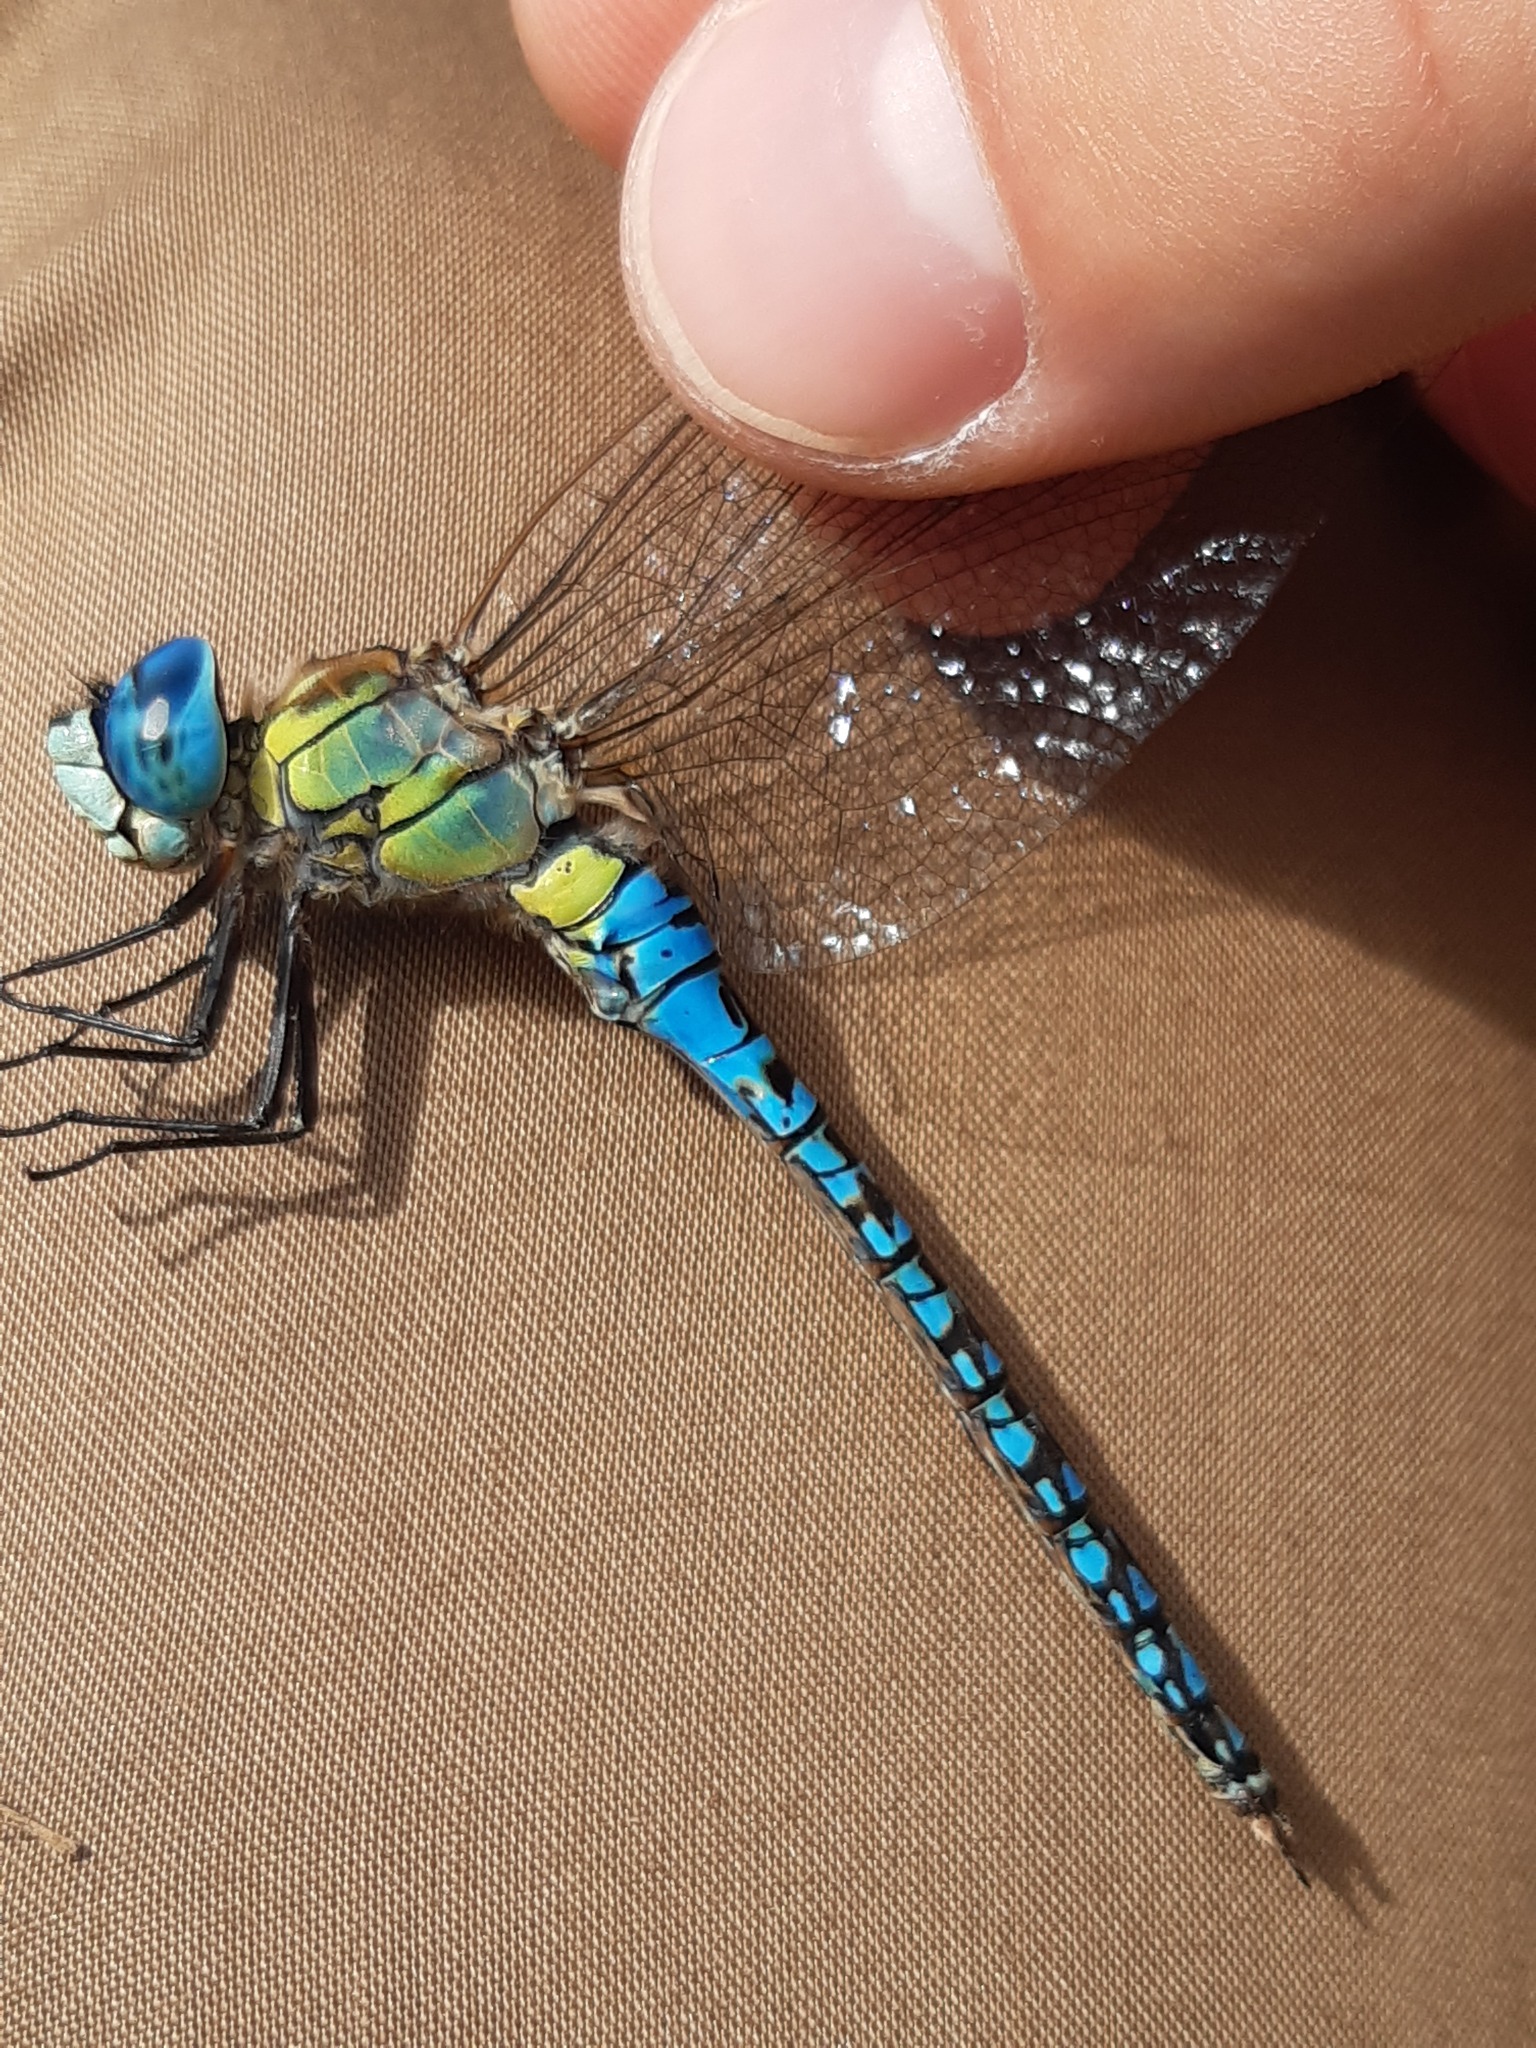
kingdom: Animalia
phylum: Arthropoda
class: Insecta
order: Odonata
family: Aeshnidae
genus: Aeshna
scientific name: Aeshna affinis
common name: Southern migrant hawker
